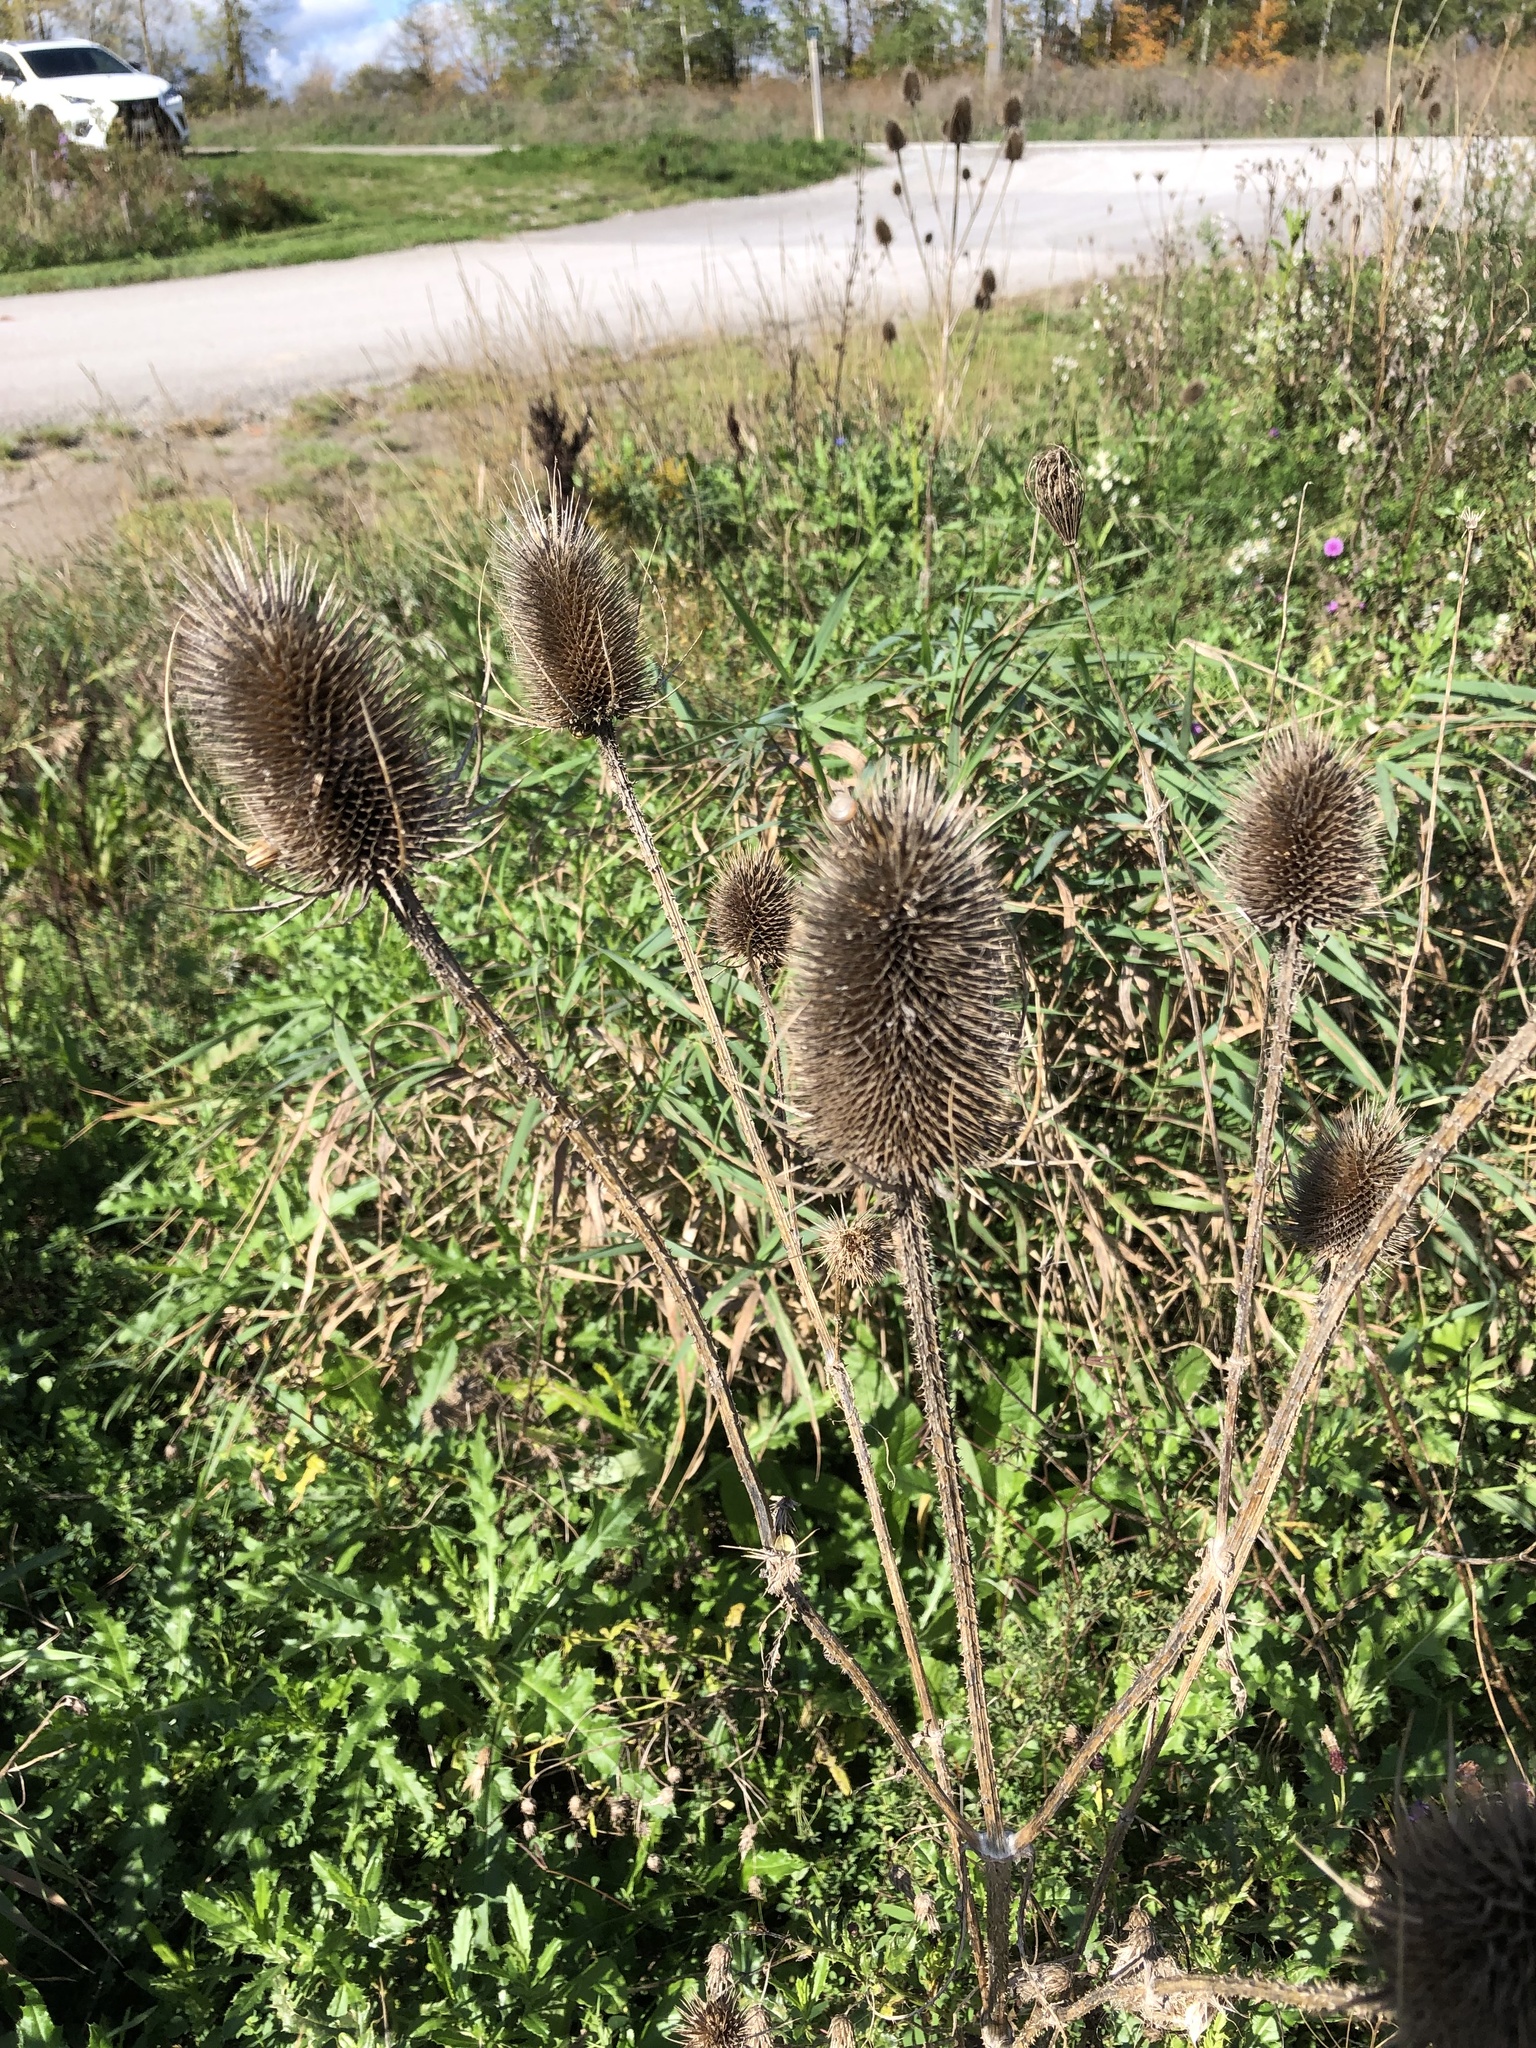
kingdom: Plantae
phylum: Tracheophyta
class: Magnoliopsida
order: Dipsacales
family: Caprifoliaceae
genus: Dipsacus
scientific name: Dipsacus fullonum
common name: Teasel
